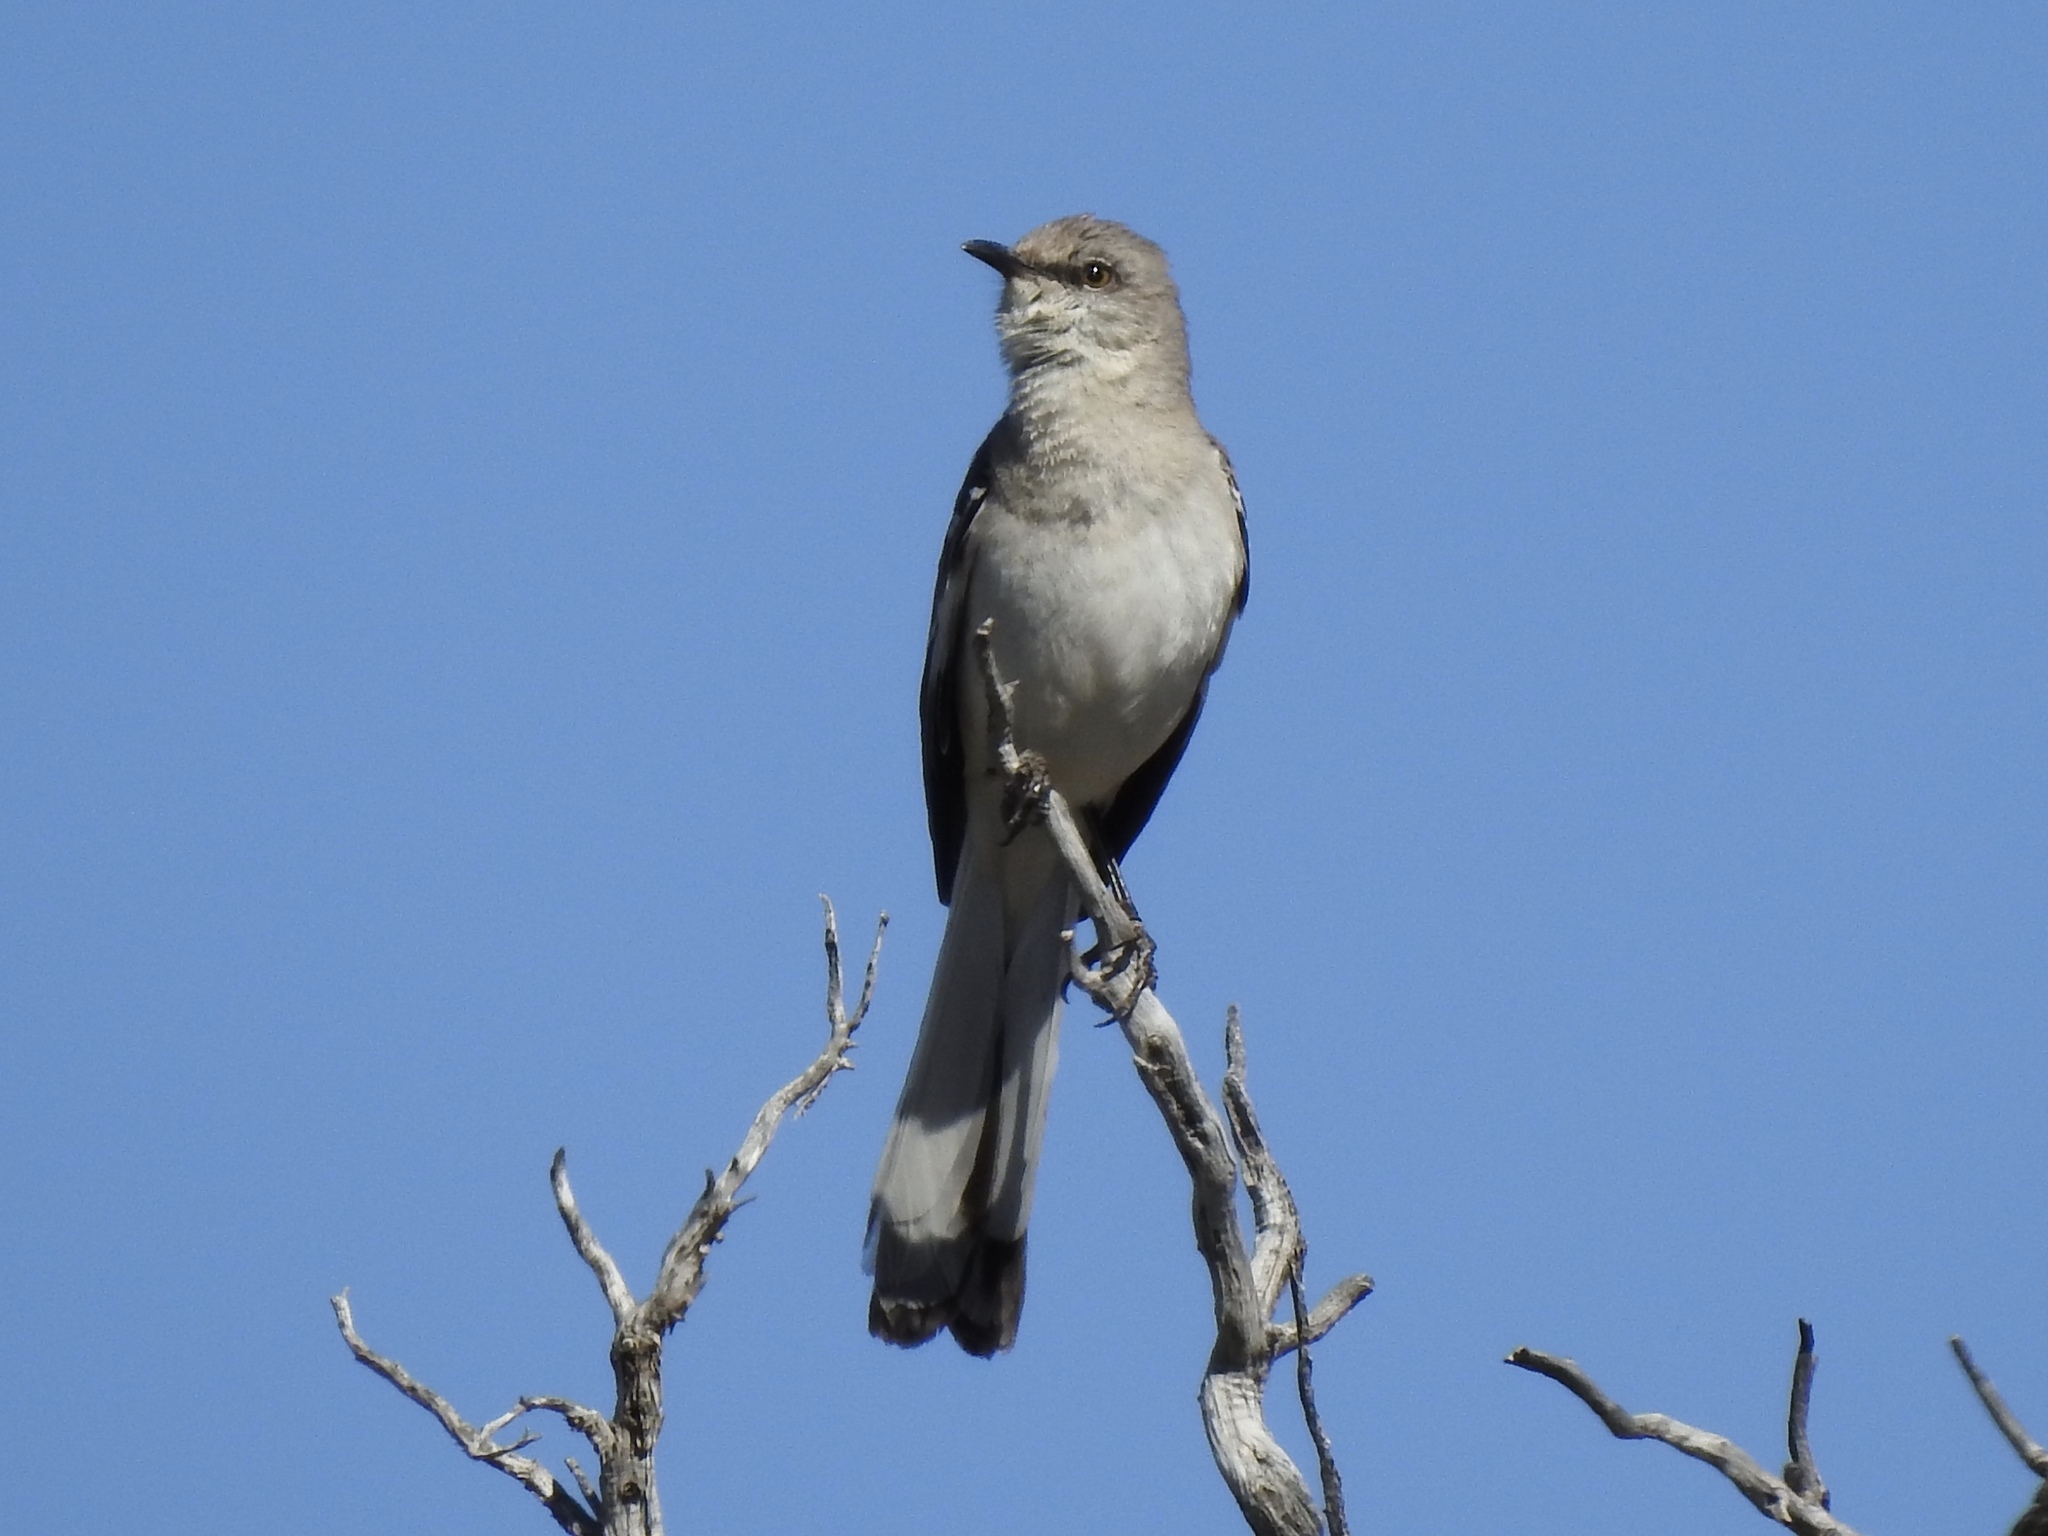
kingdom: Animalia
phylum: Chordata
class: Aves
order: Passeriformes
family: Mimidae
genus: Mimus
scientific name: Mimus polyglottos
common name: Northern mockingbird
